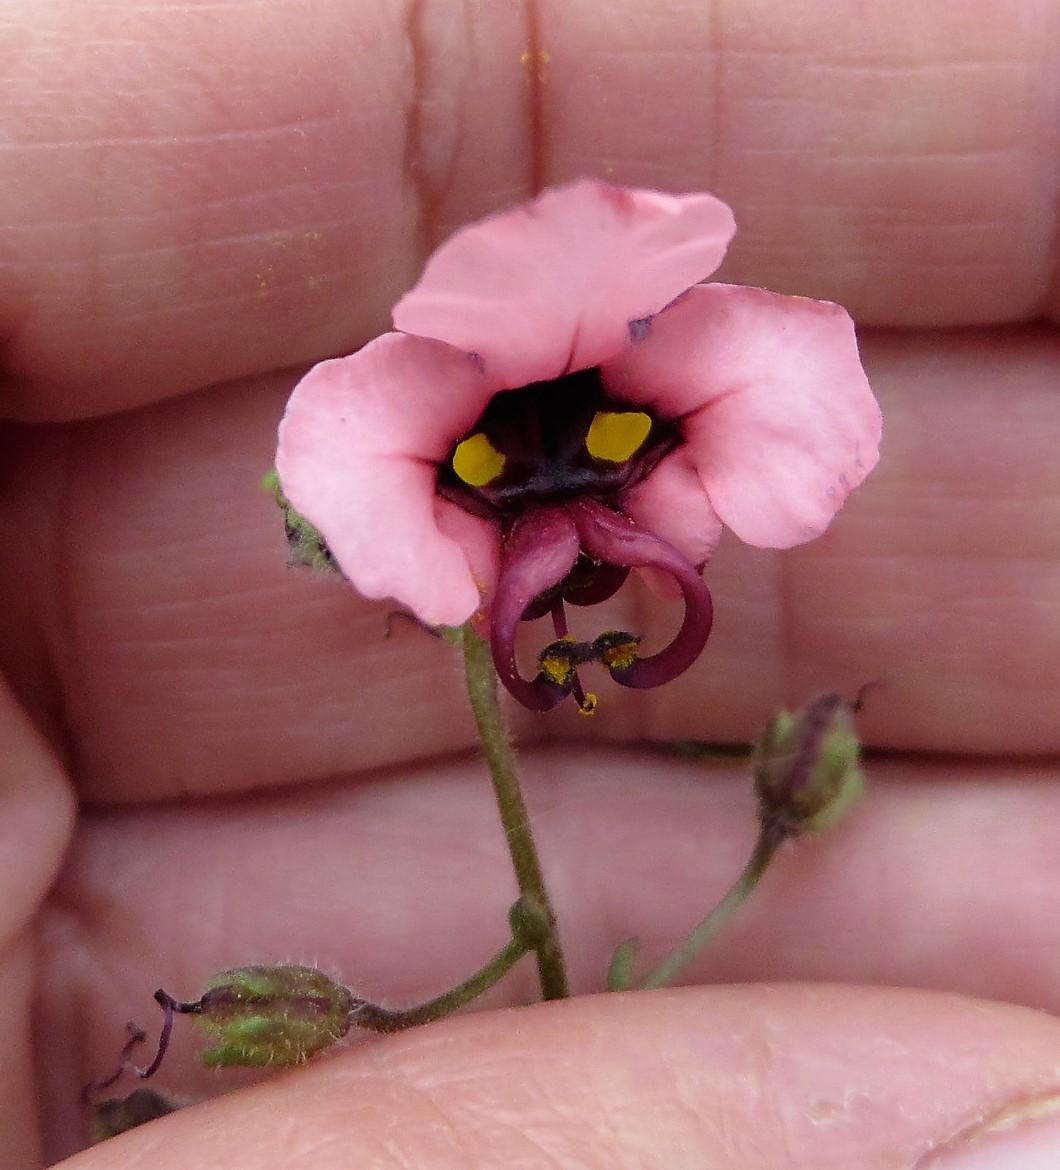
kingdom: Plantae
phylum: Tracheophyta
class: Magnoliopsida
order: Lamiales
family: Scrophulariaceae
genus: Alonsoa
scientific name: Alonsoa unilabiata
